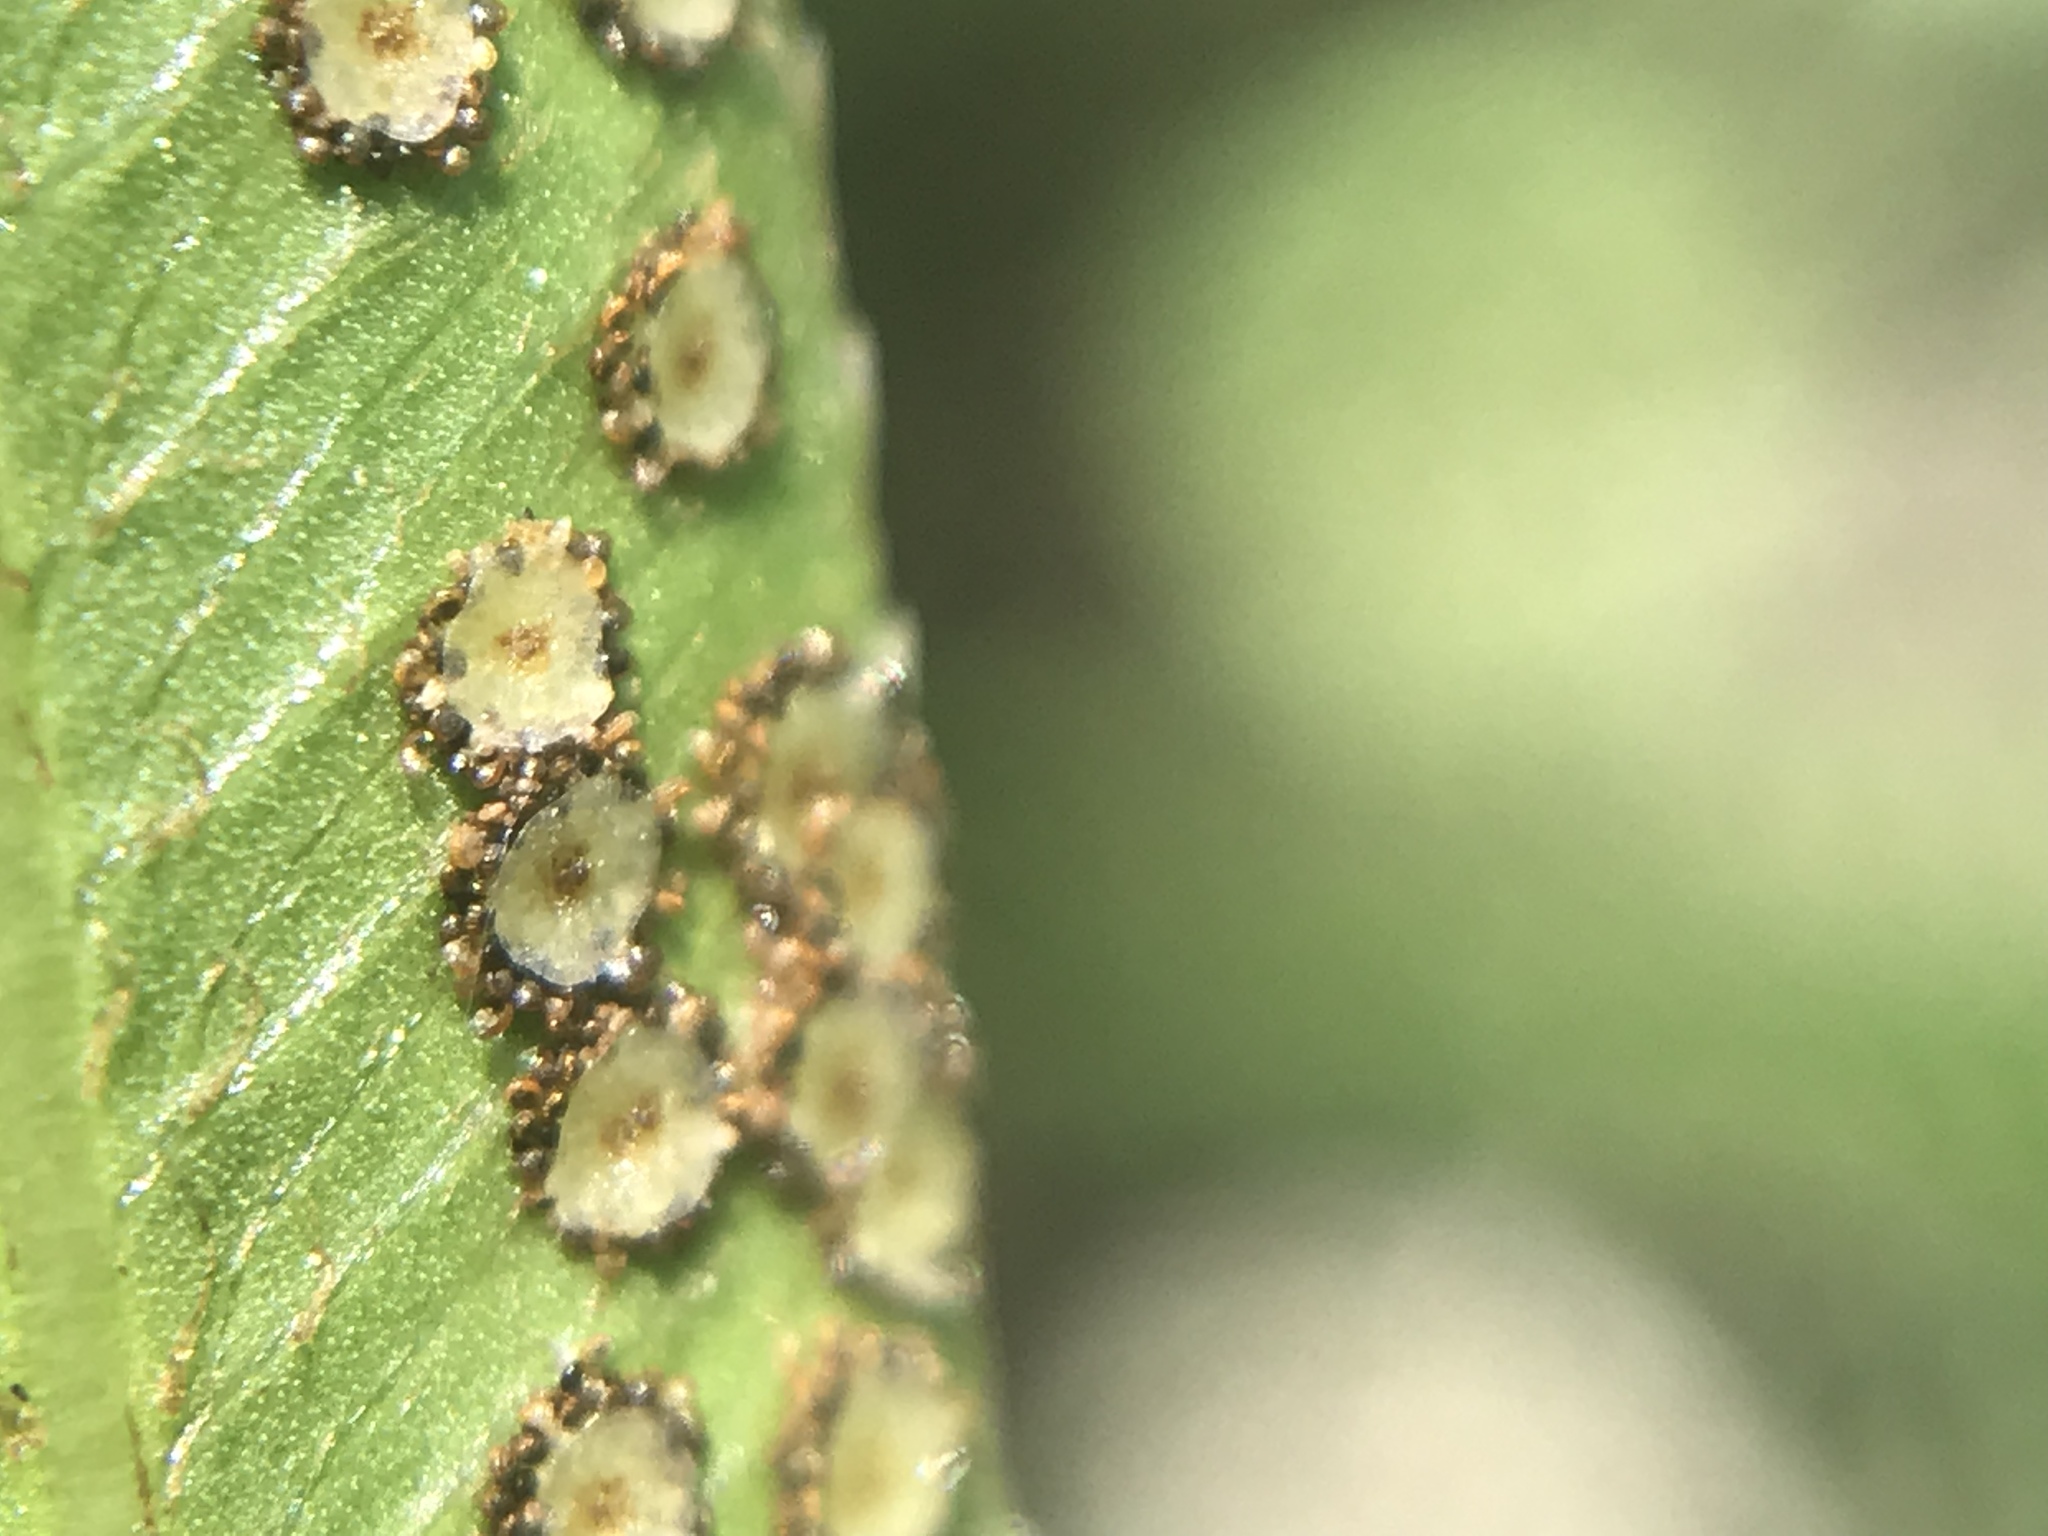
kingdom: Plantae
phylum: Tracheophyta
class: Polypodiopsida
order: Polypodiales
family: Dryopteridaceae
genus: Phanerophlebia
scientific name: Phanerophlebia umbonata
